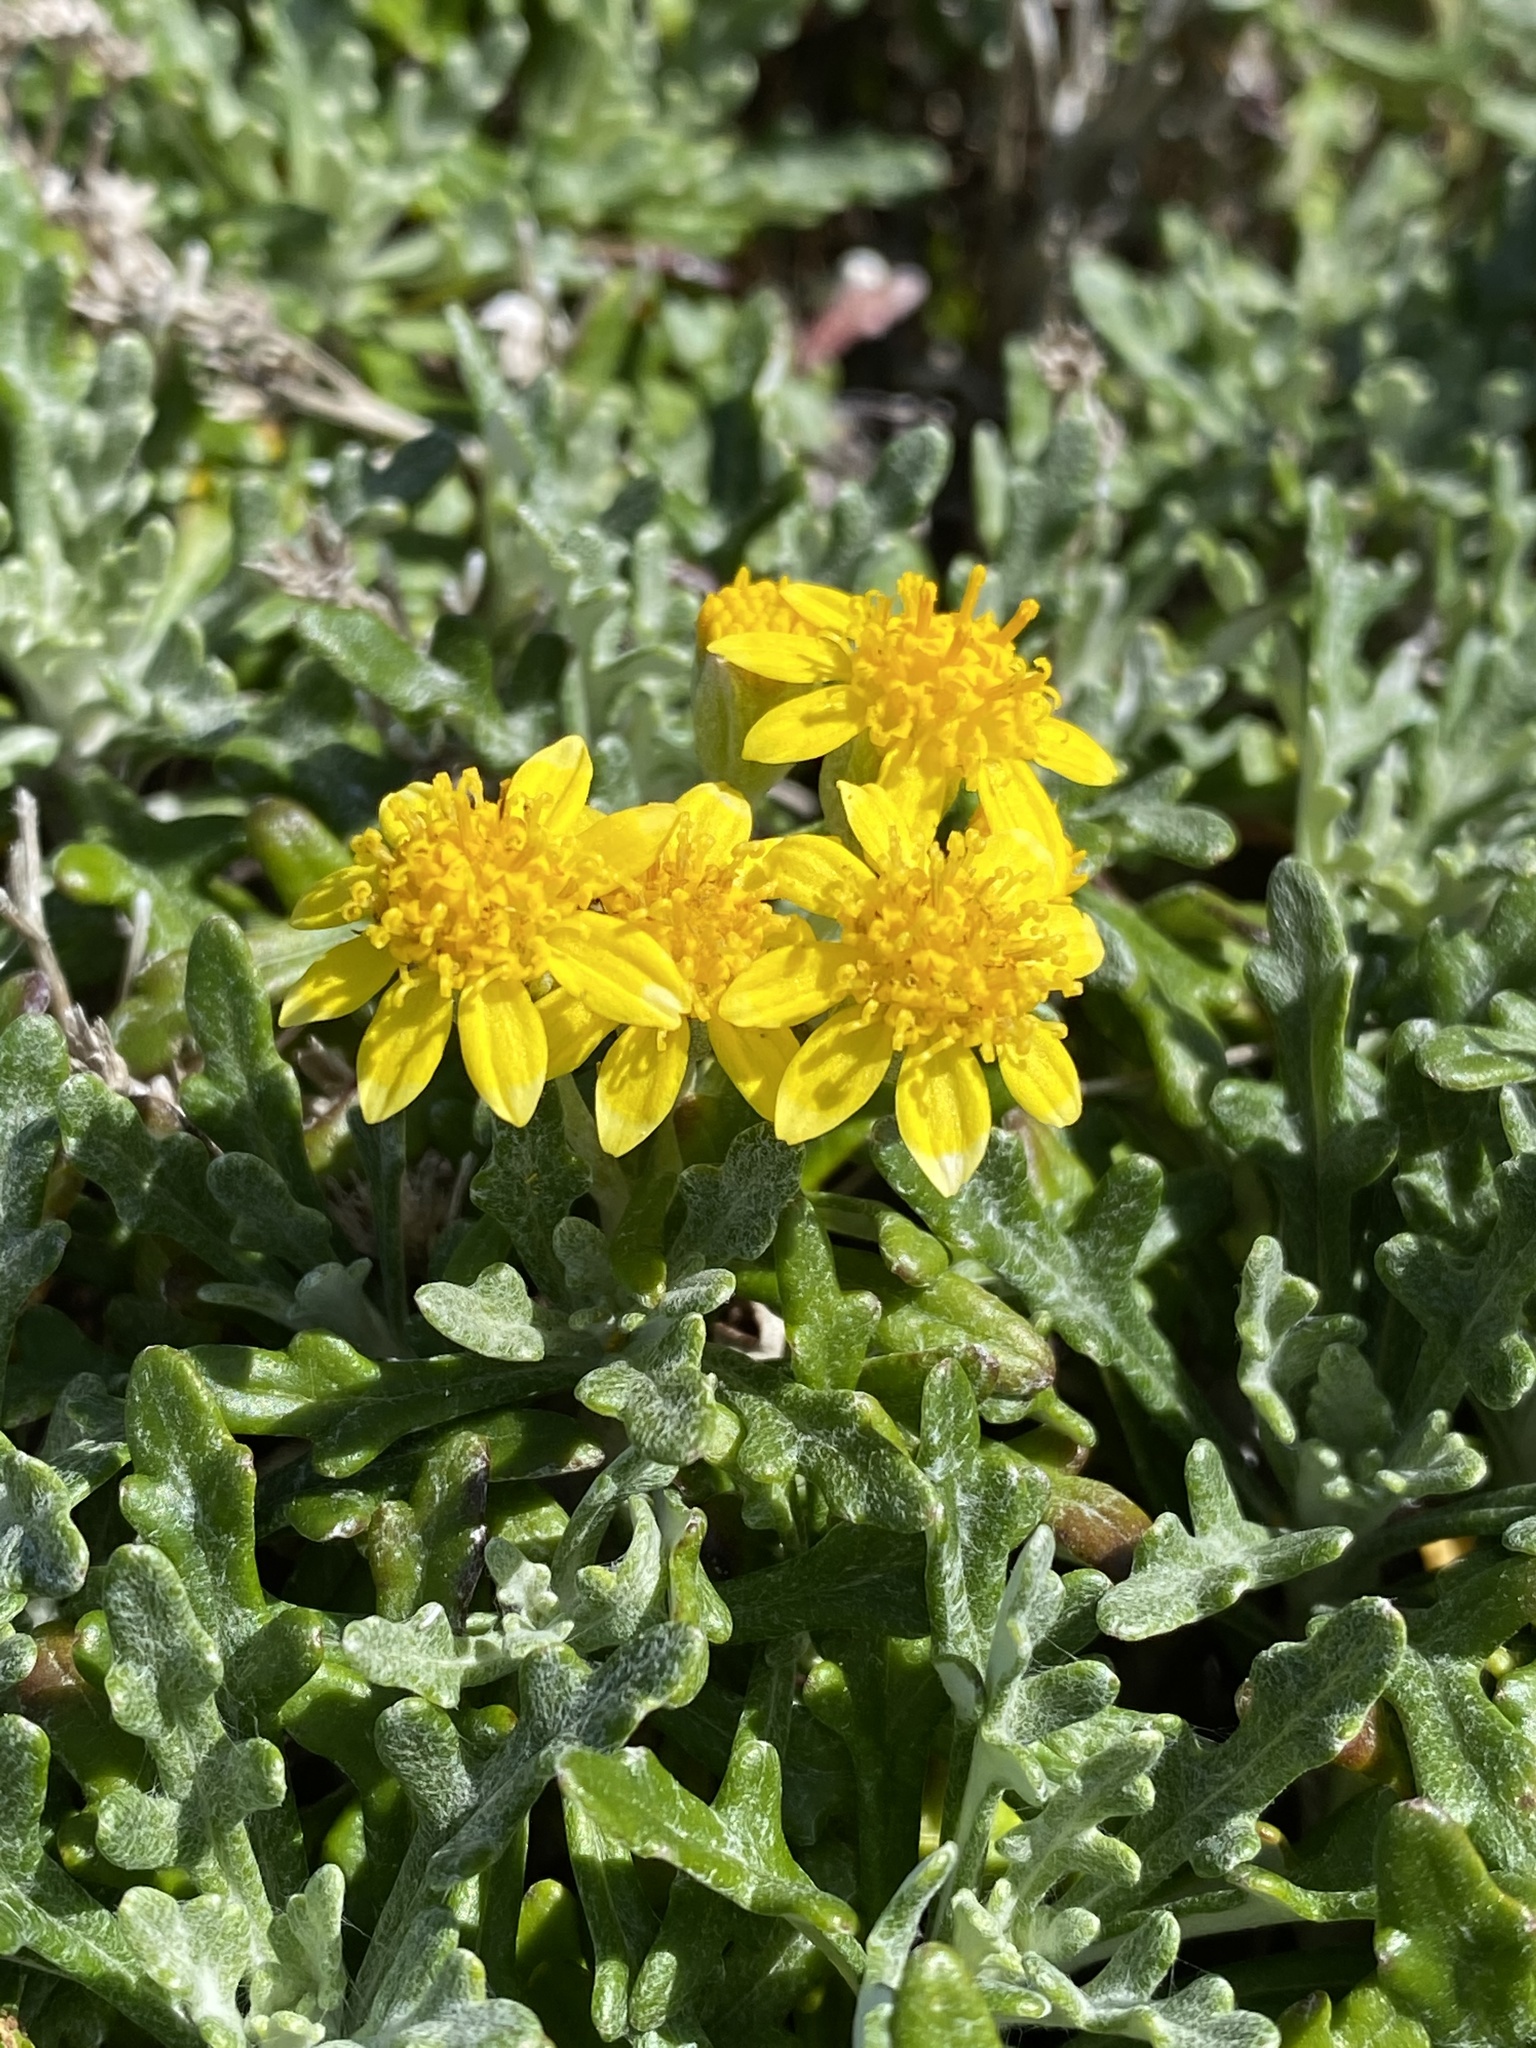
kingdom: Plantae
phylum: Tracheophyta
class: Magnoliopsida
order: Asterales
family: Asteraceae
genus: Eriophyllum
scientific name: Eriophyllum staechadifolium
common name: Lizardtail
